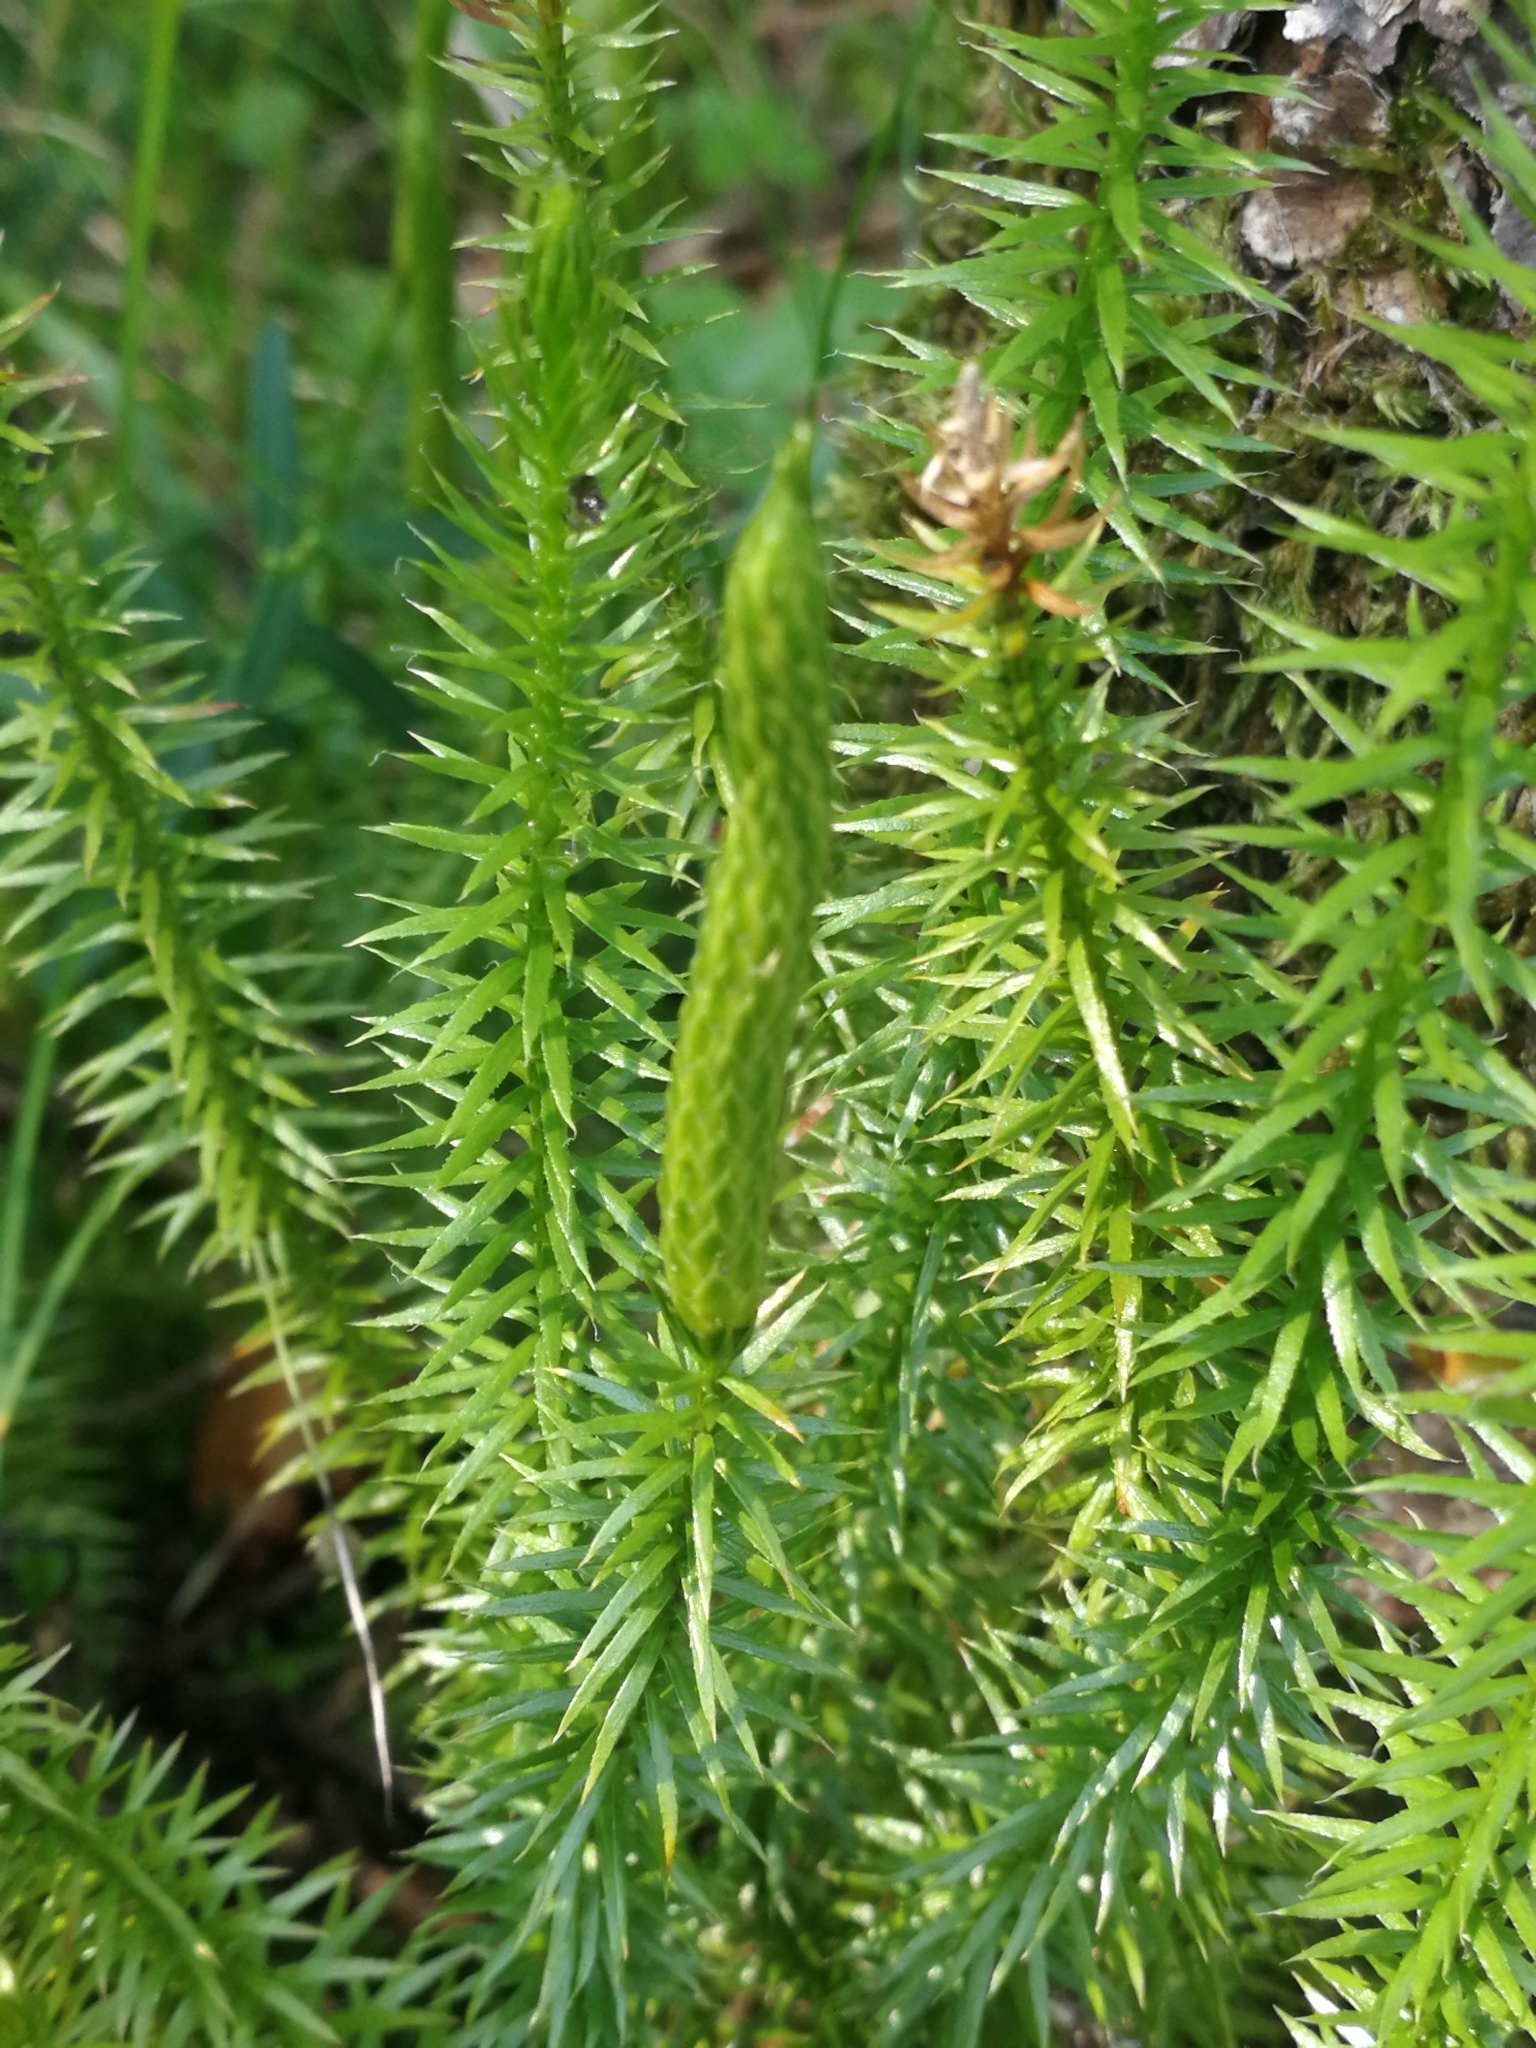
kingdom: Plantae
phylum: Tracheophyta
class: Lycopodiopsida
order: Lycopodiales
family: Lycopodiaceae
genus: Spinulum
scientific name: Spinulum annotinum
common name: Interrupted club-moss
